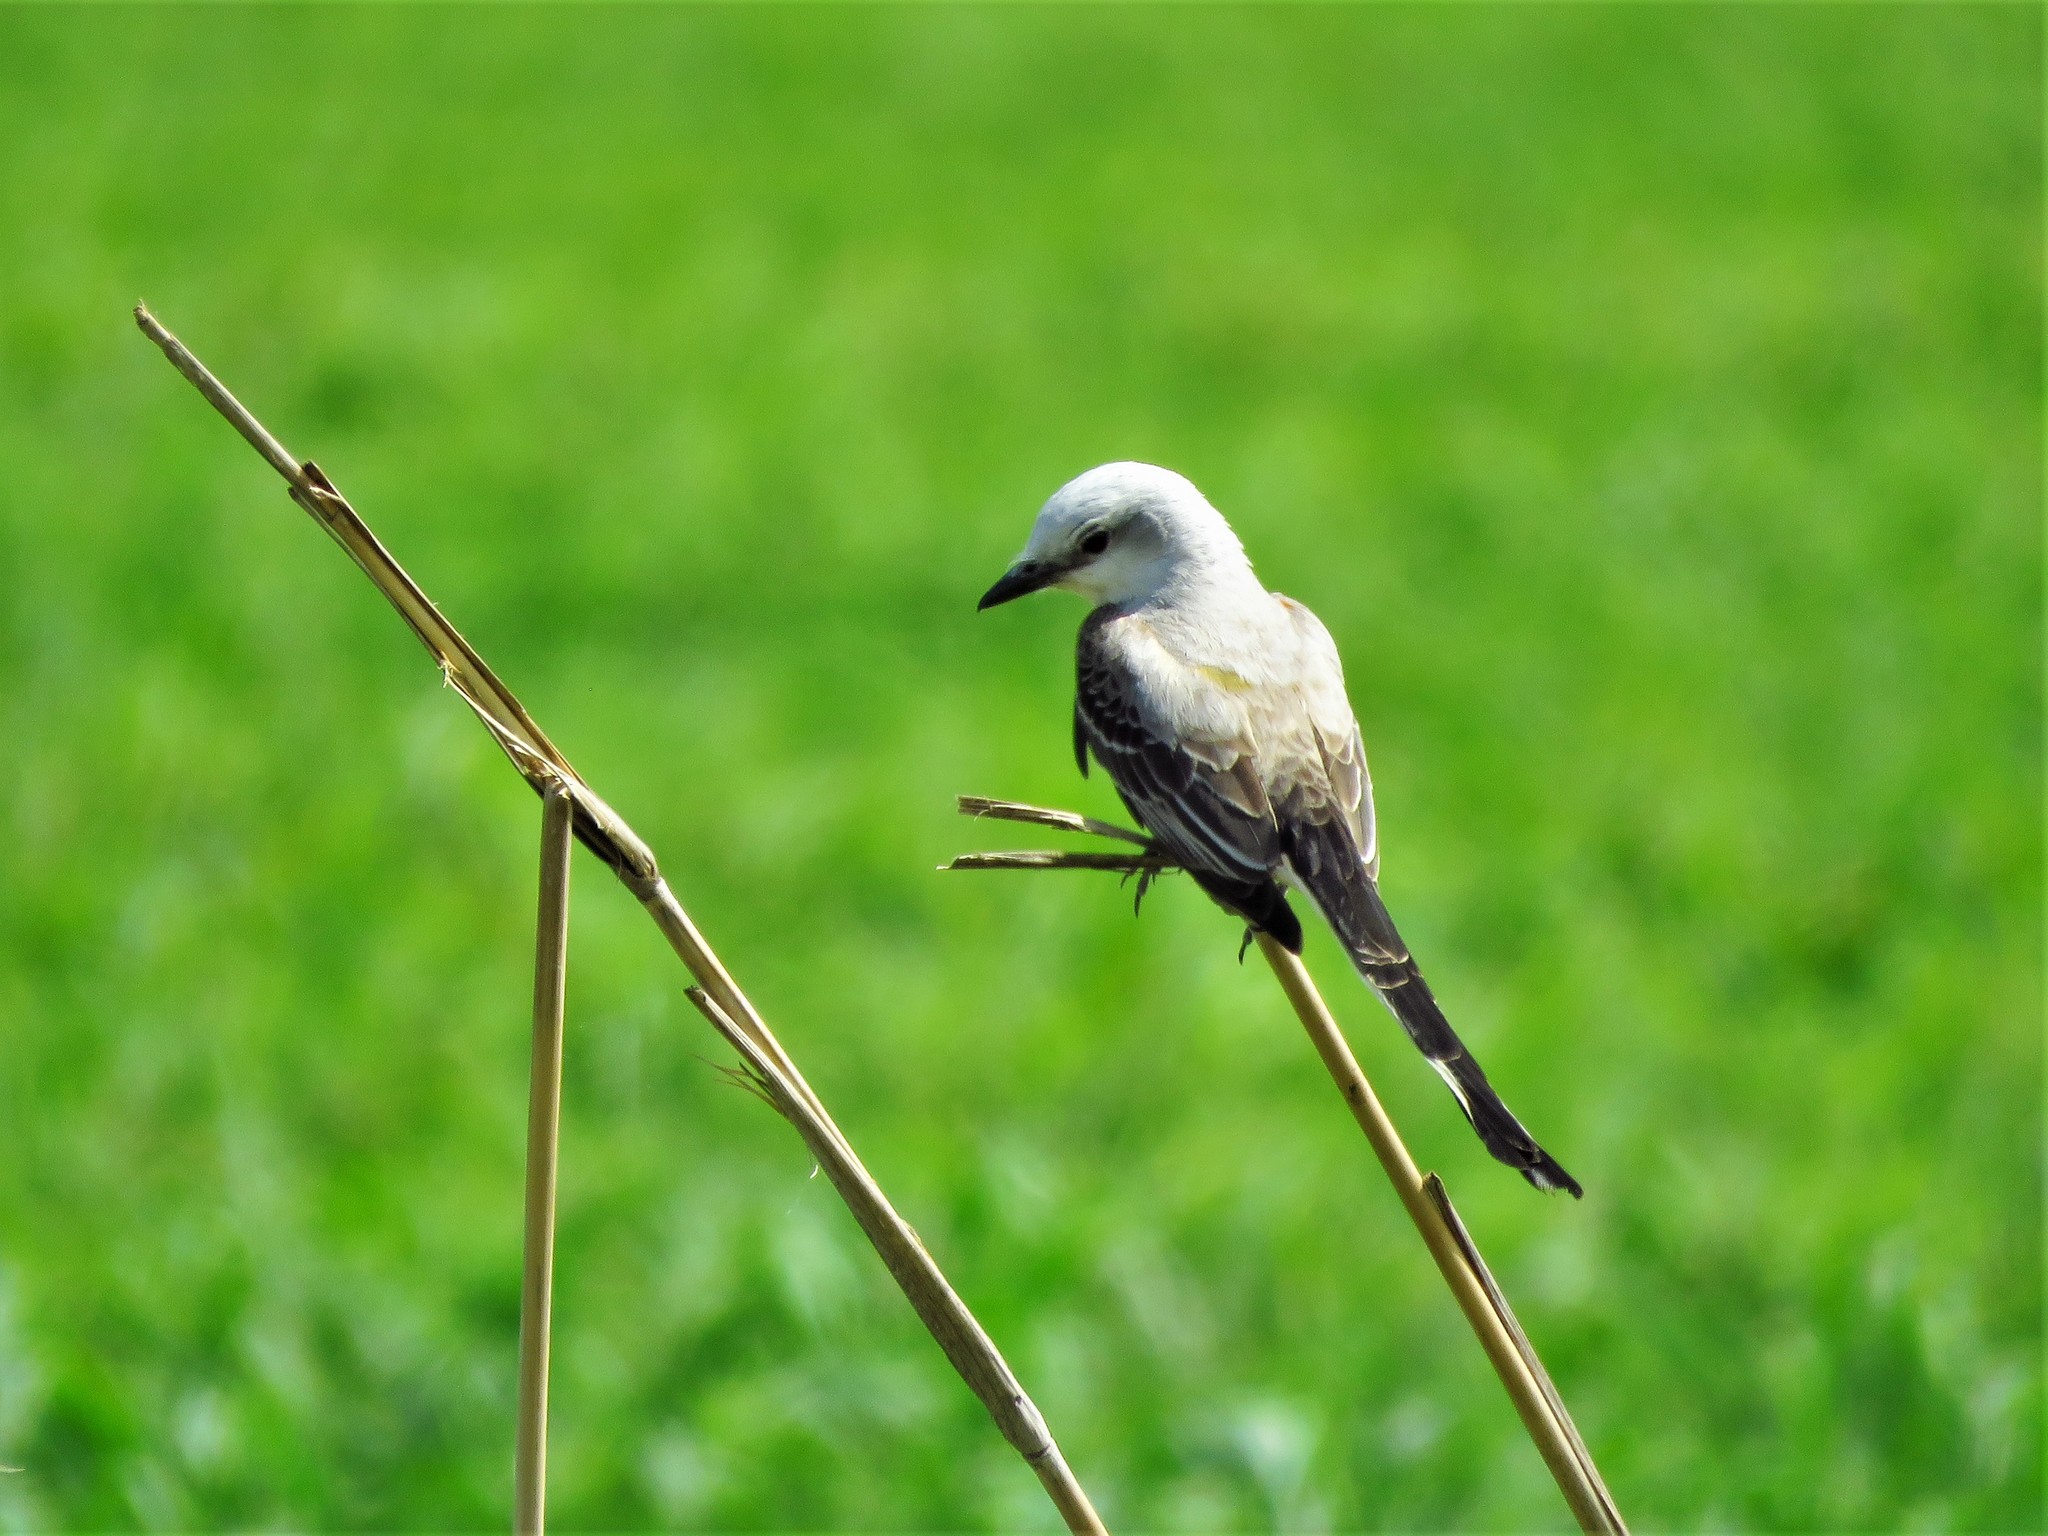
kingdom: Animalia
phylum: Chordata
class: Aves
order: Passeriformes
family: Tyrannidae
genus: Tyrannus
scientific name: Tyrannus forficatus
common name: Scissor-tailed flycatcher
